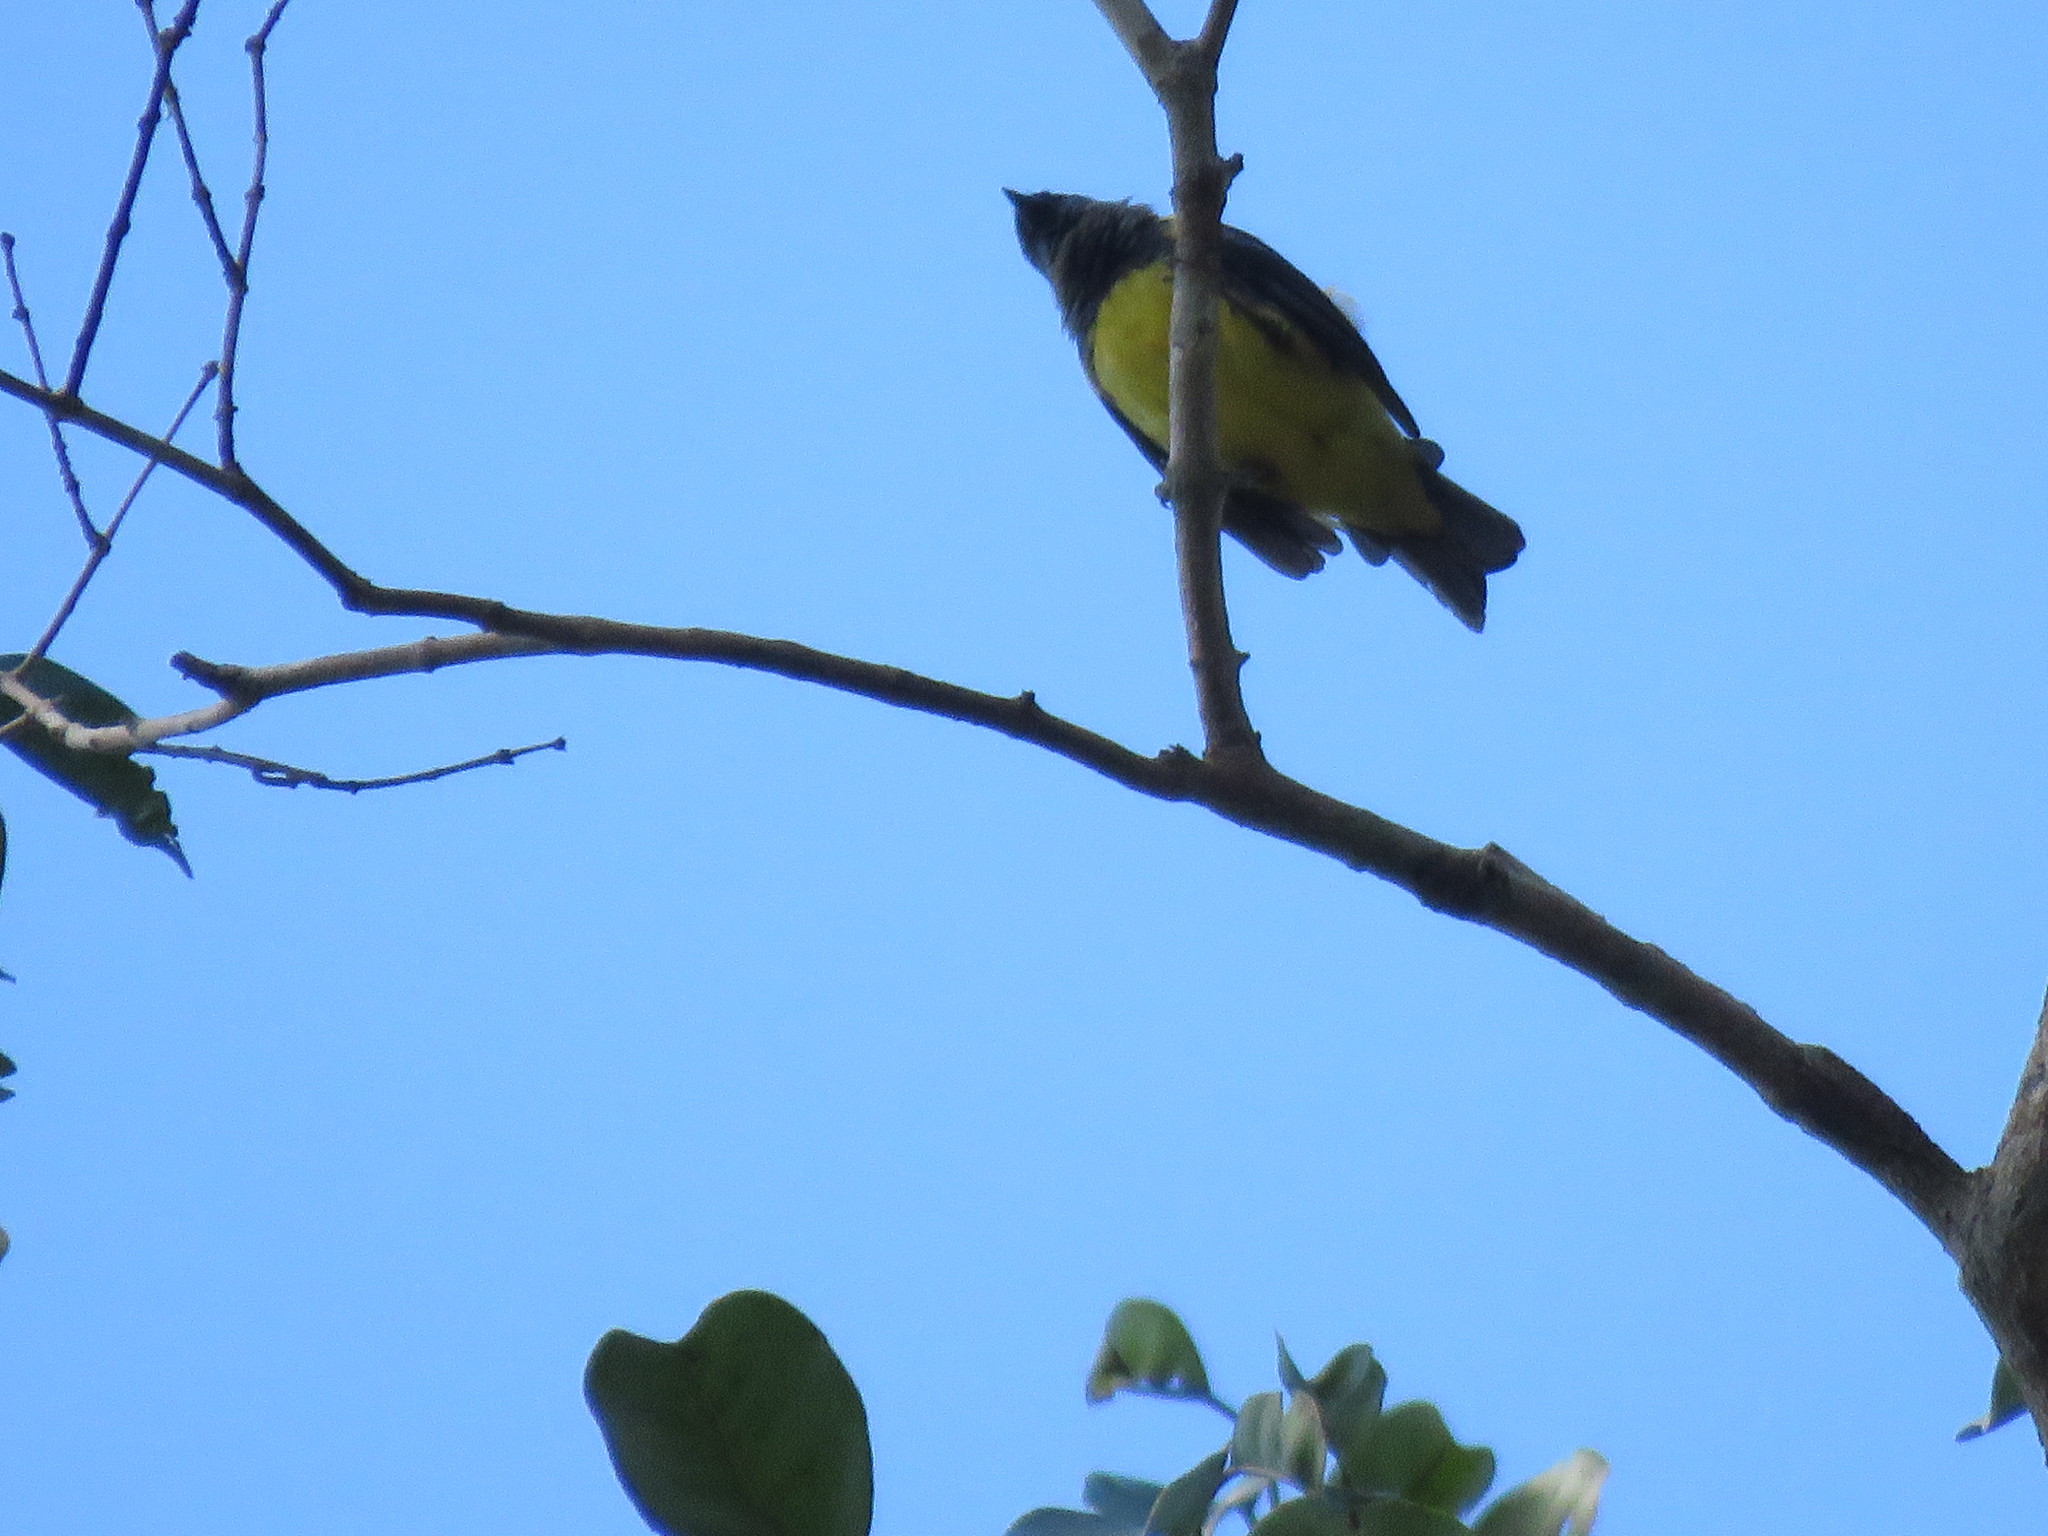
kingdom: Animalia
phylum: Chordata
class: Aves
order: Passeriformes
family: Thraupidae
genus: Tangara
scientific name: Tangara mexicana
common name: Turquoise tanager
